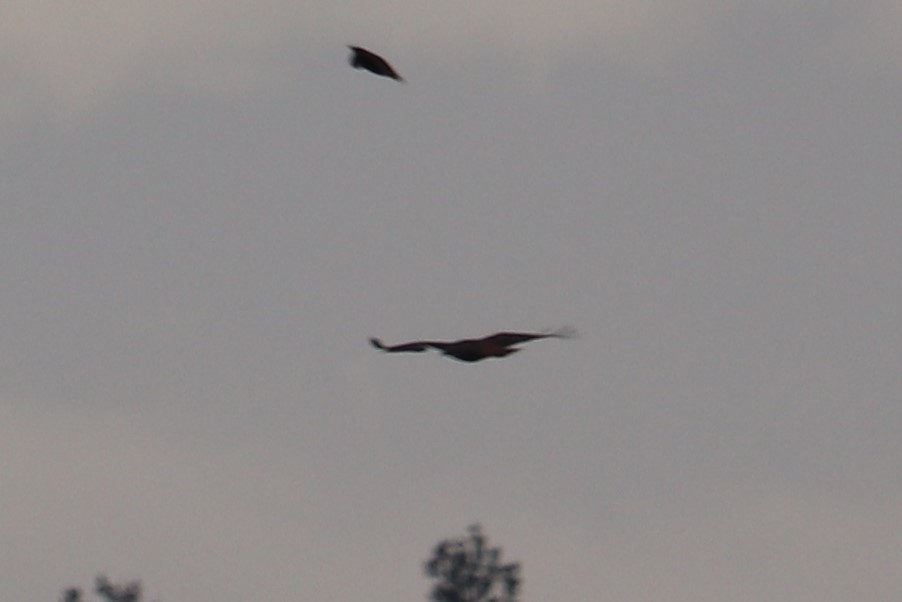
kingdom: Animalia
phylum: Chordata
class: Aves
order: Accipitriformes
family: Accipitridae
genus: Buteo
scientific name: Buteo jamaicensis
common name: Red-tailed hawk
